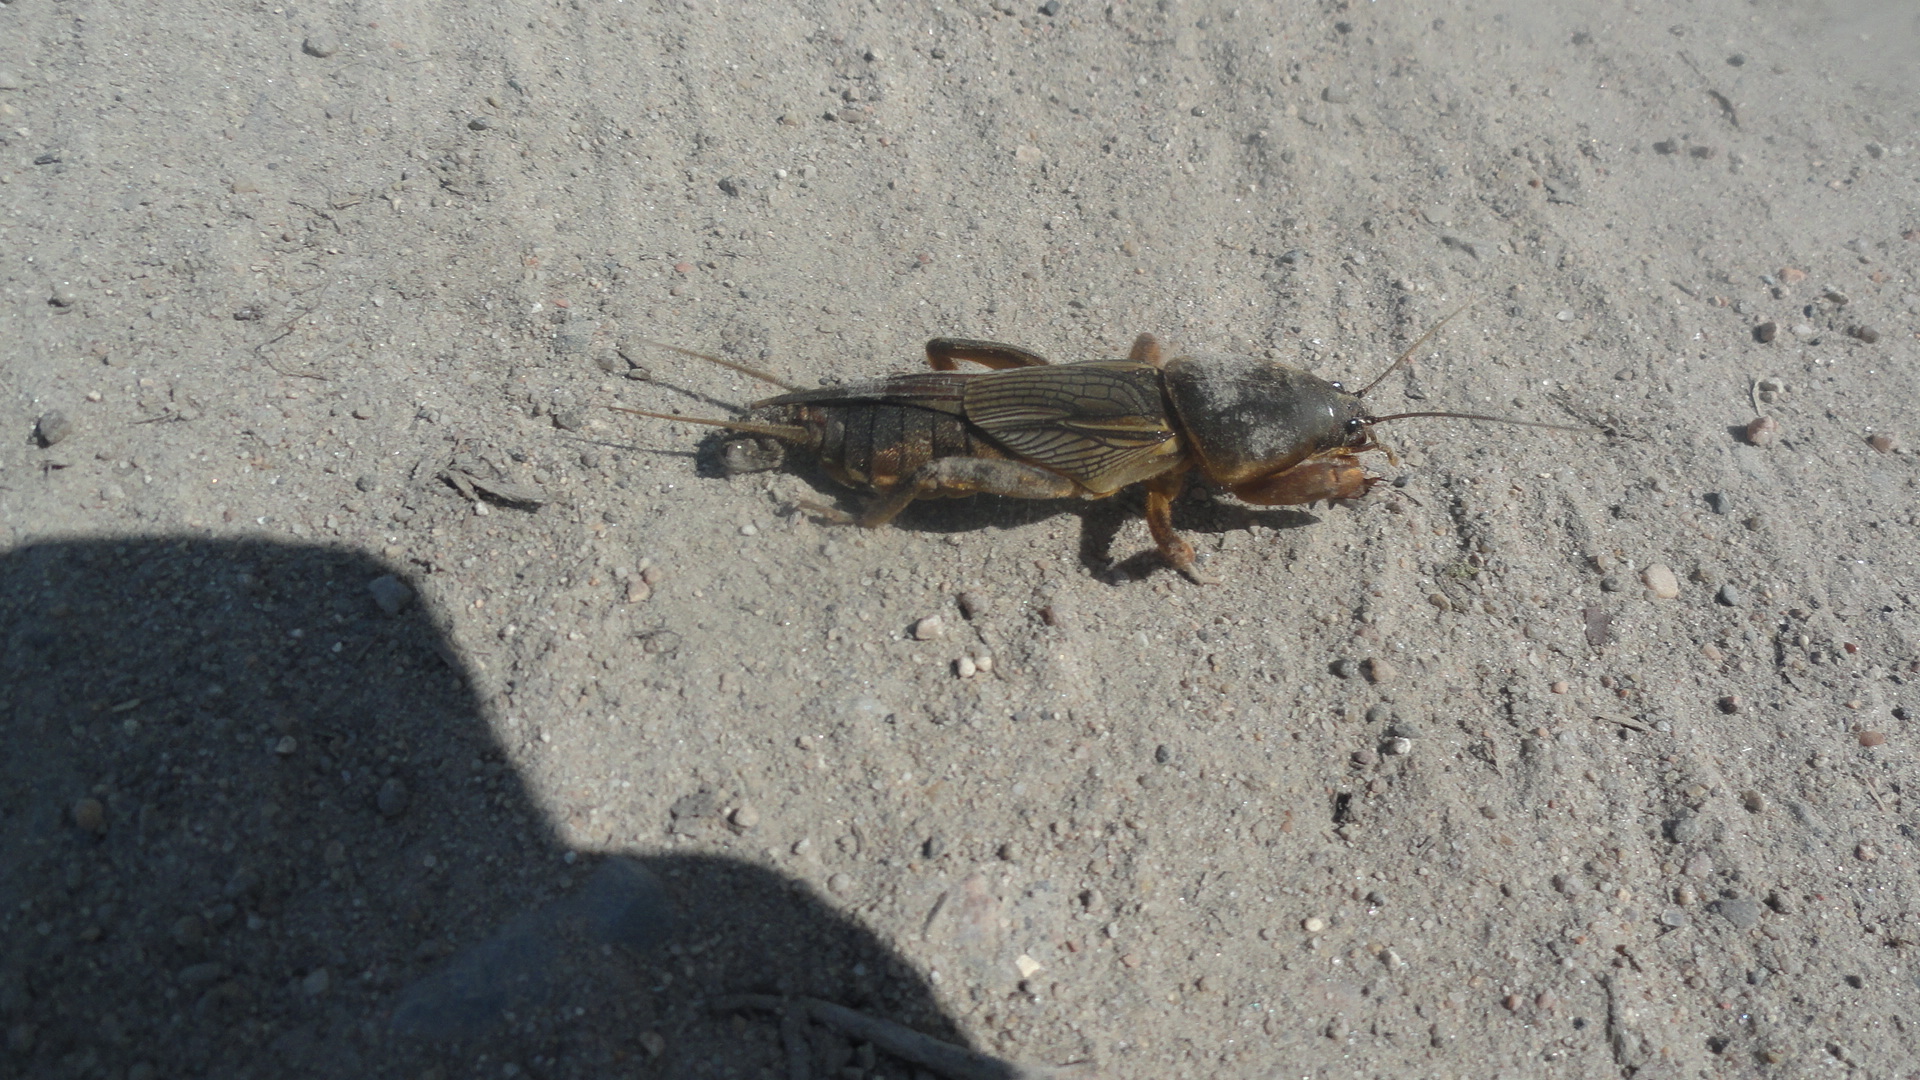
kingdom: Animalia
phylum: Arthropoda
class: Insecta
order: Orthoptera
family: Gryllotalpidae
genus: Gryllotalpa
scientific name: Gryllotalpa gryllotalpa
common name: European mole cricket
